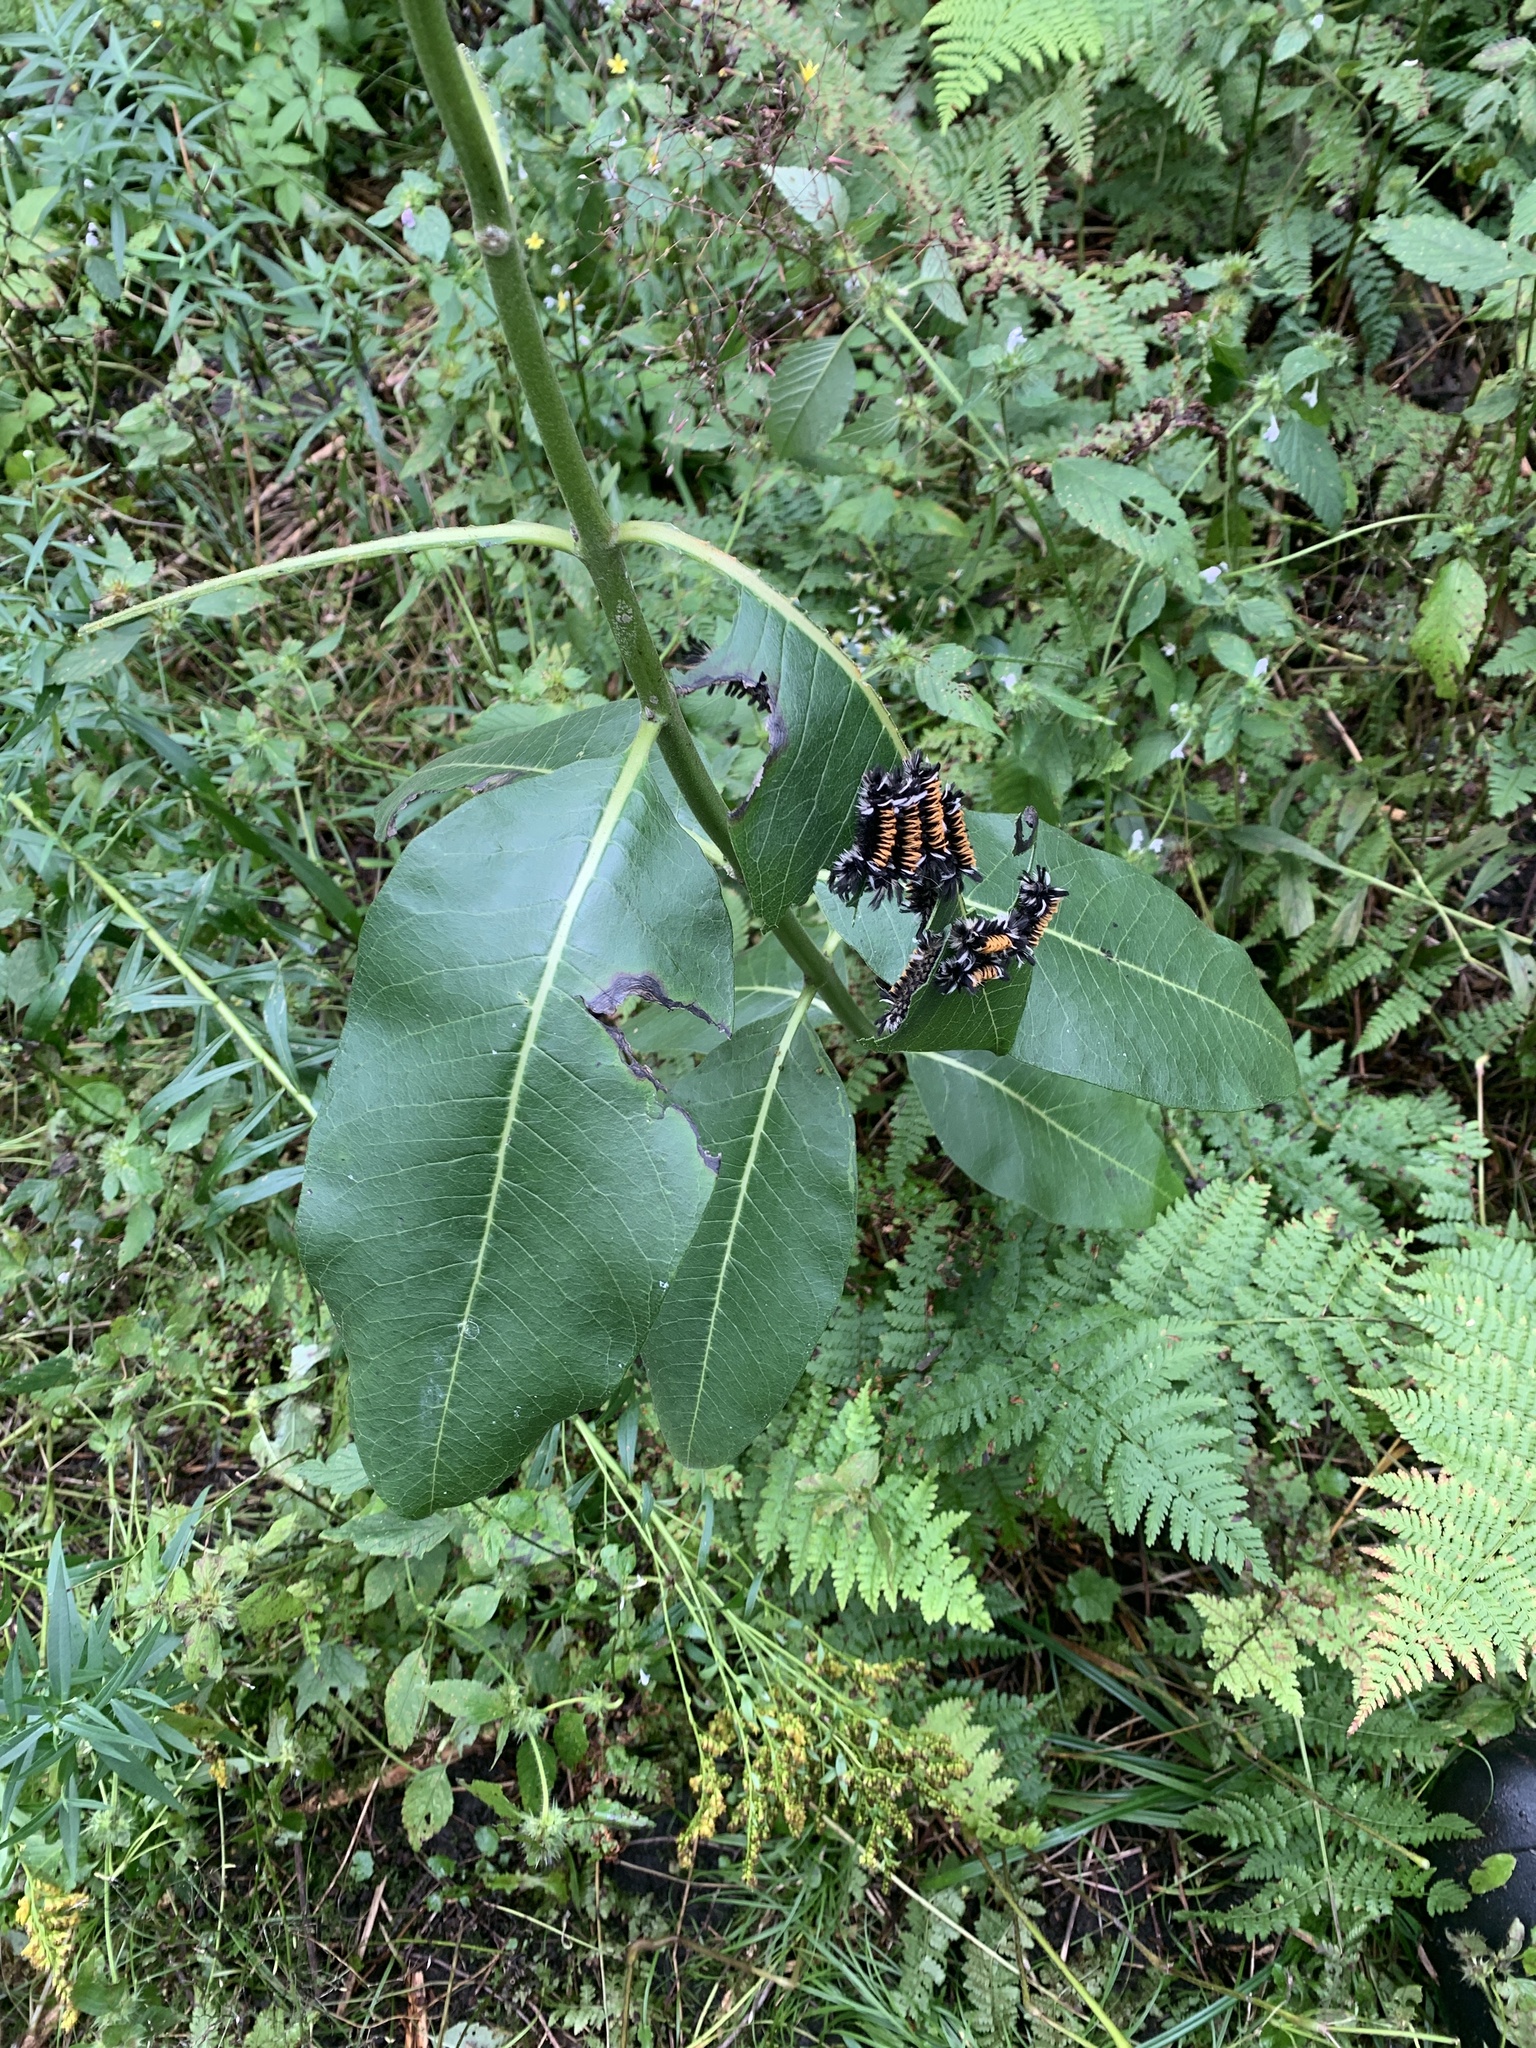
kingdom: Plantae
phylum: Tracheophyta
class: Magnoliopsida
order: Gentianales
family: Apocynaceae
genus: Asclepias
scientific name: Asclepias syriaca
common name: Common milkweed
